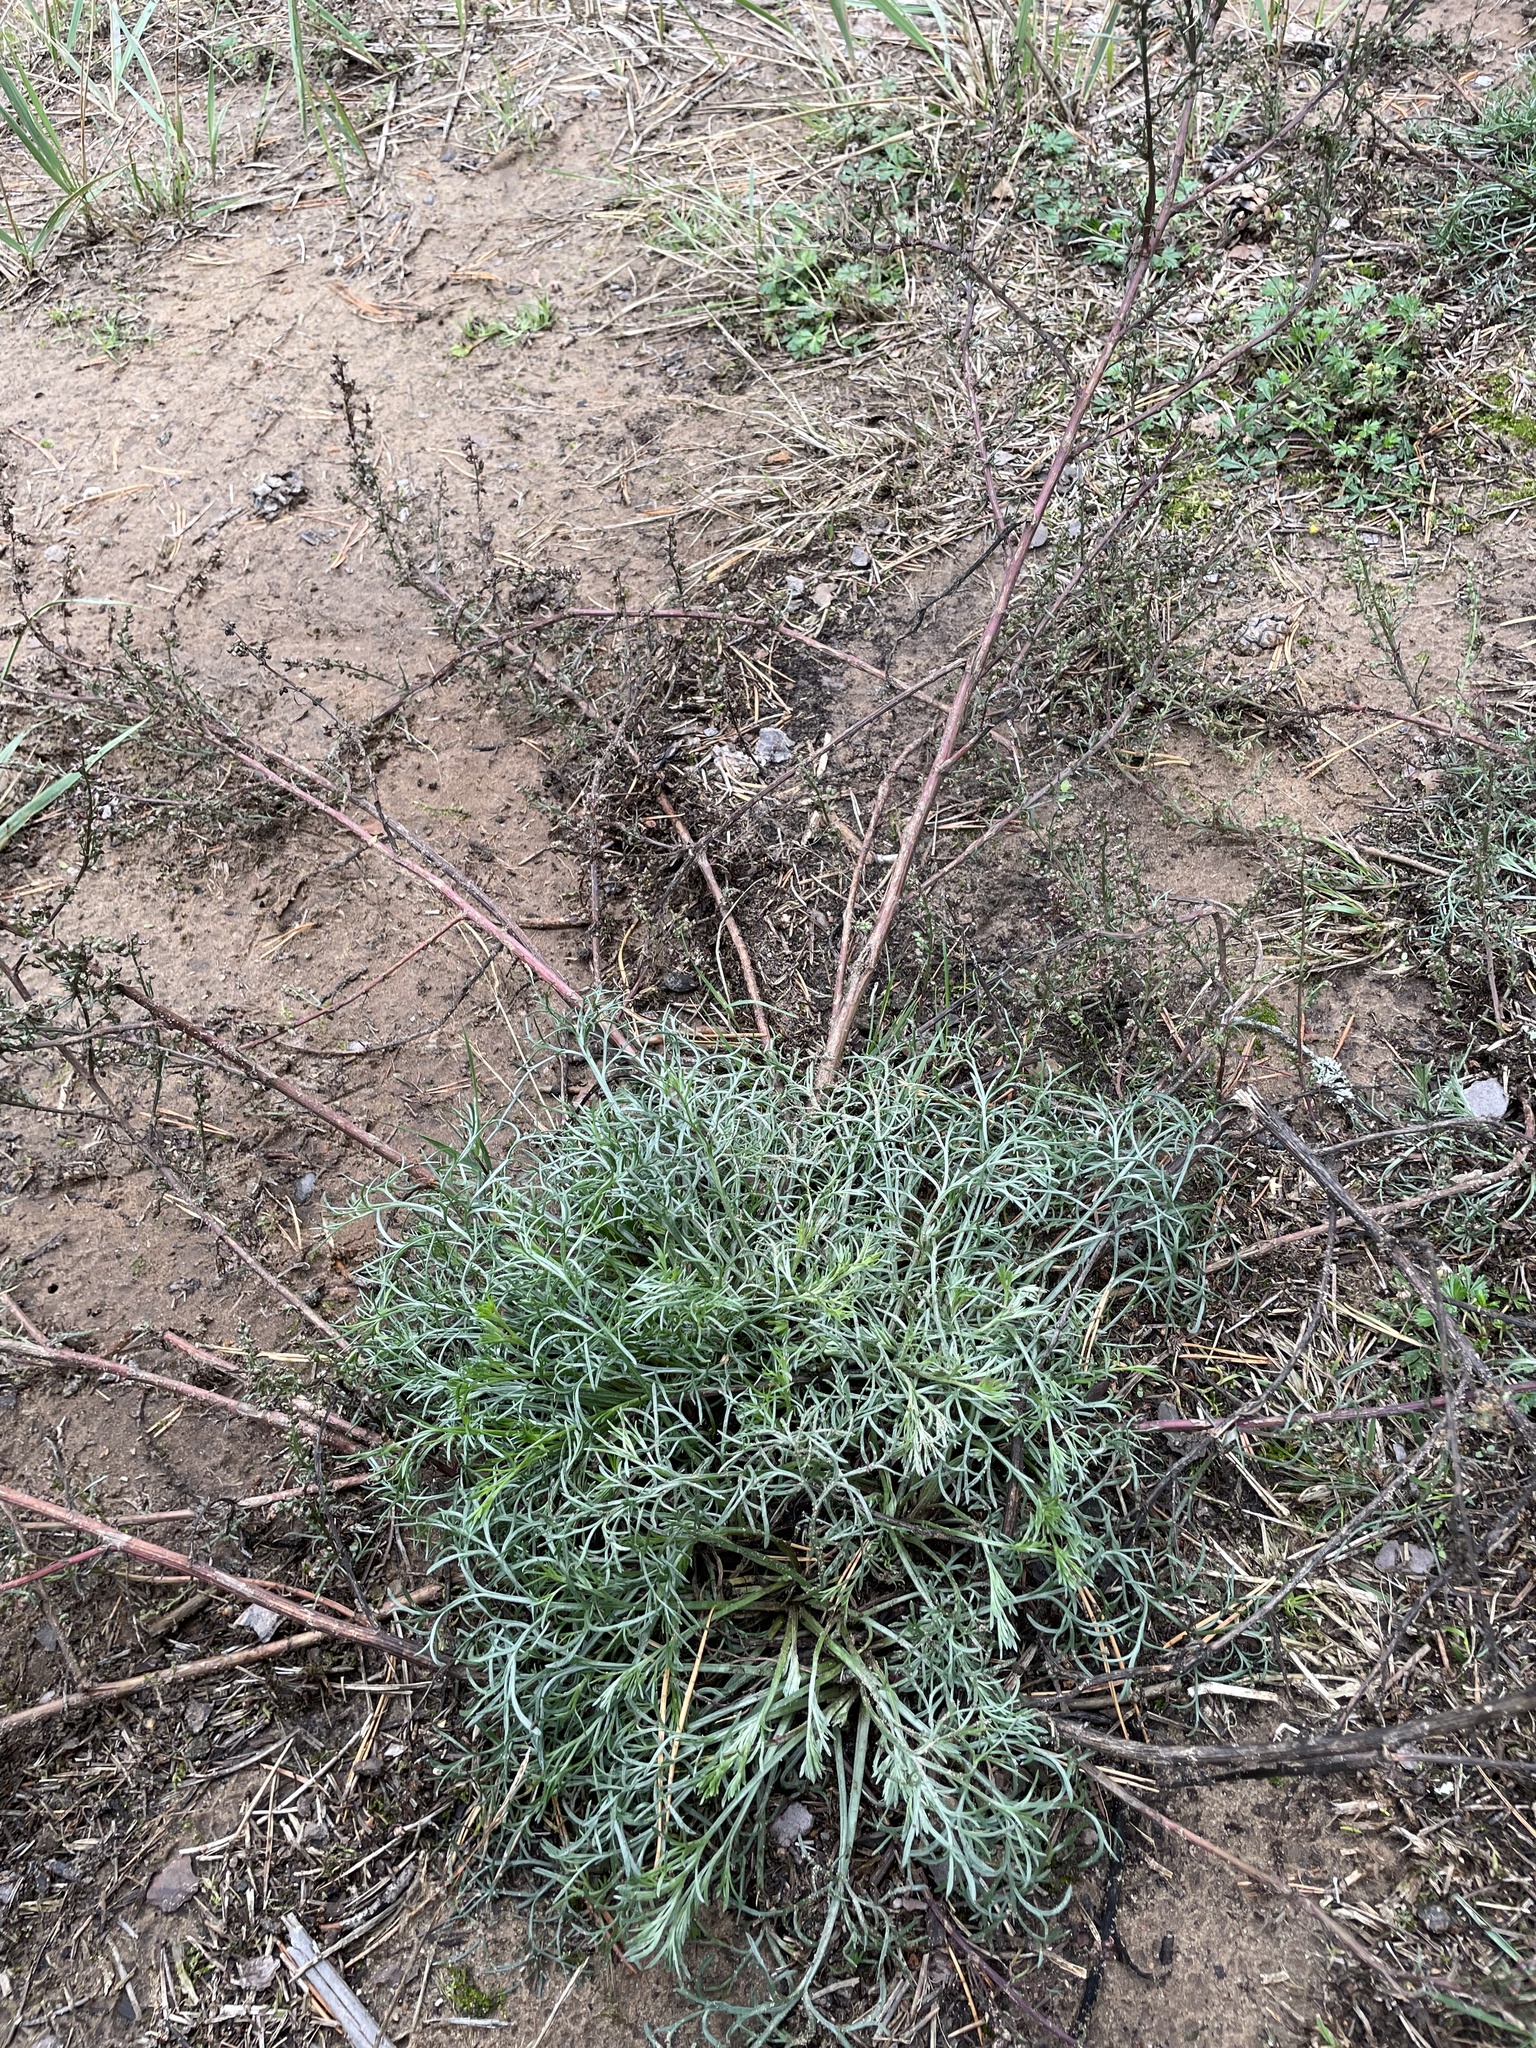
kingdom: Plantae
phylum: Tracheophyta
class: Magnoliopsida
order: Asterales
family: Asteraceae
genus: Artemisia
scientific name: Artemisia campestris
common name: Field wormwood
